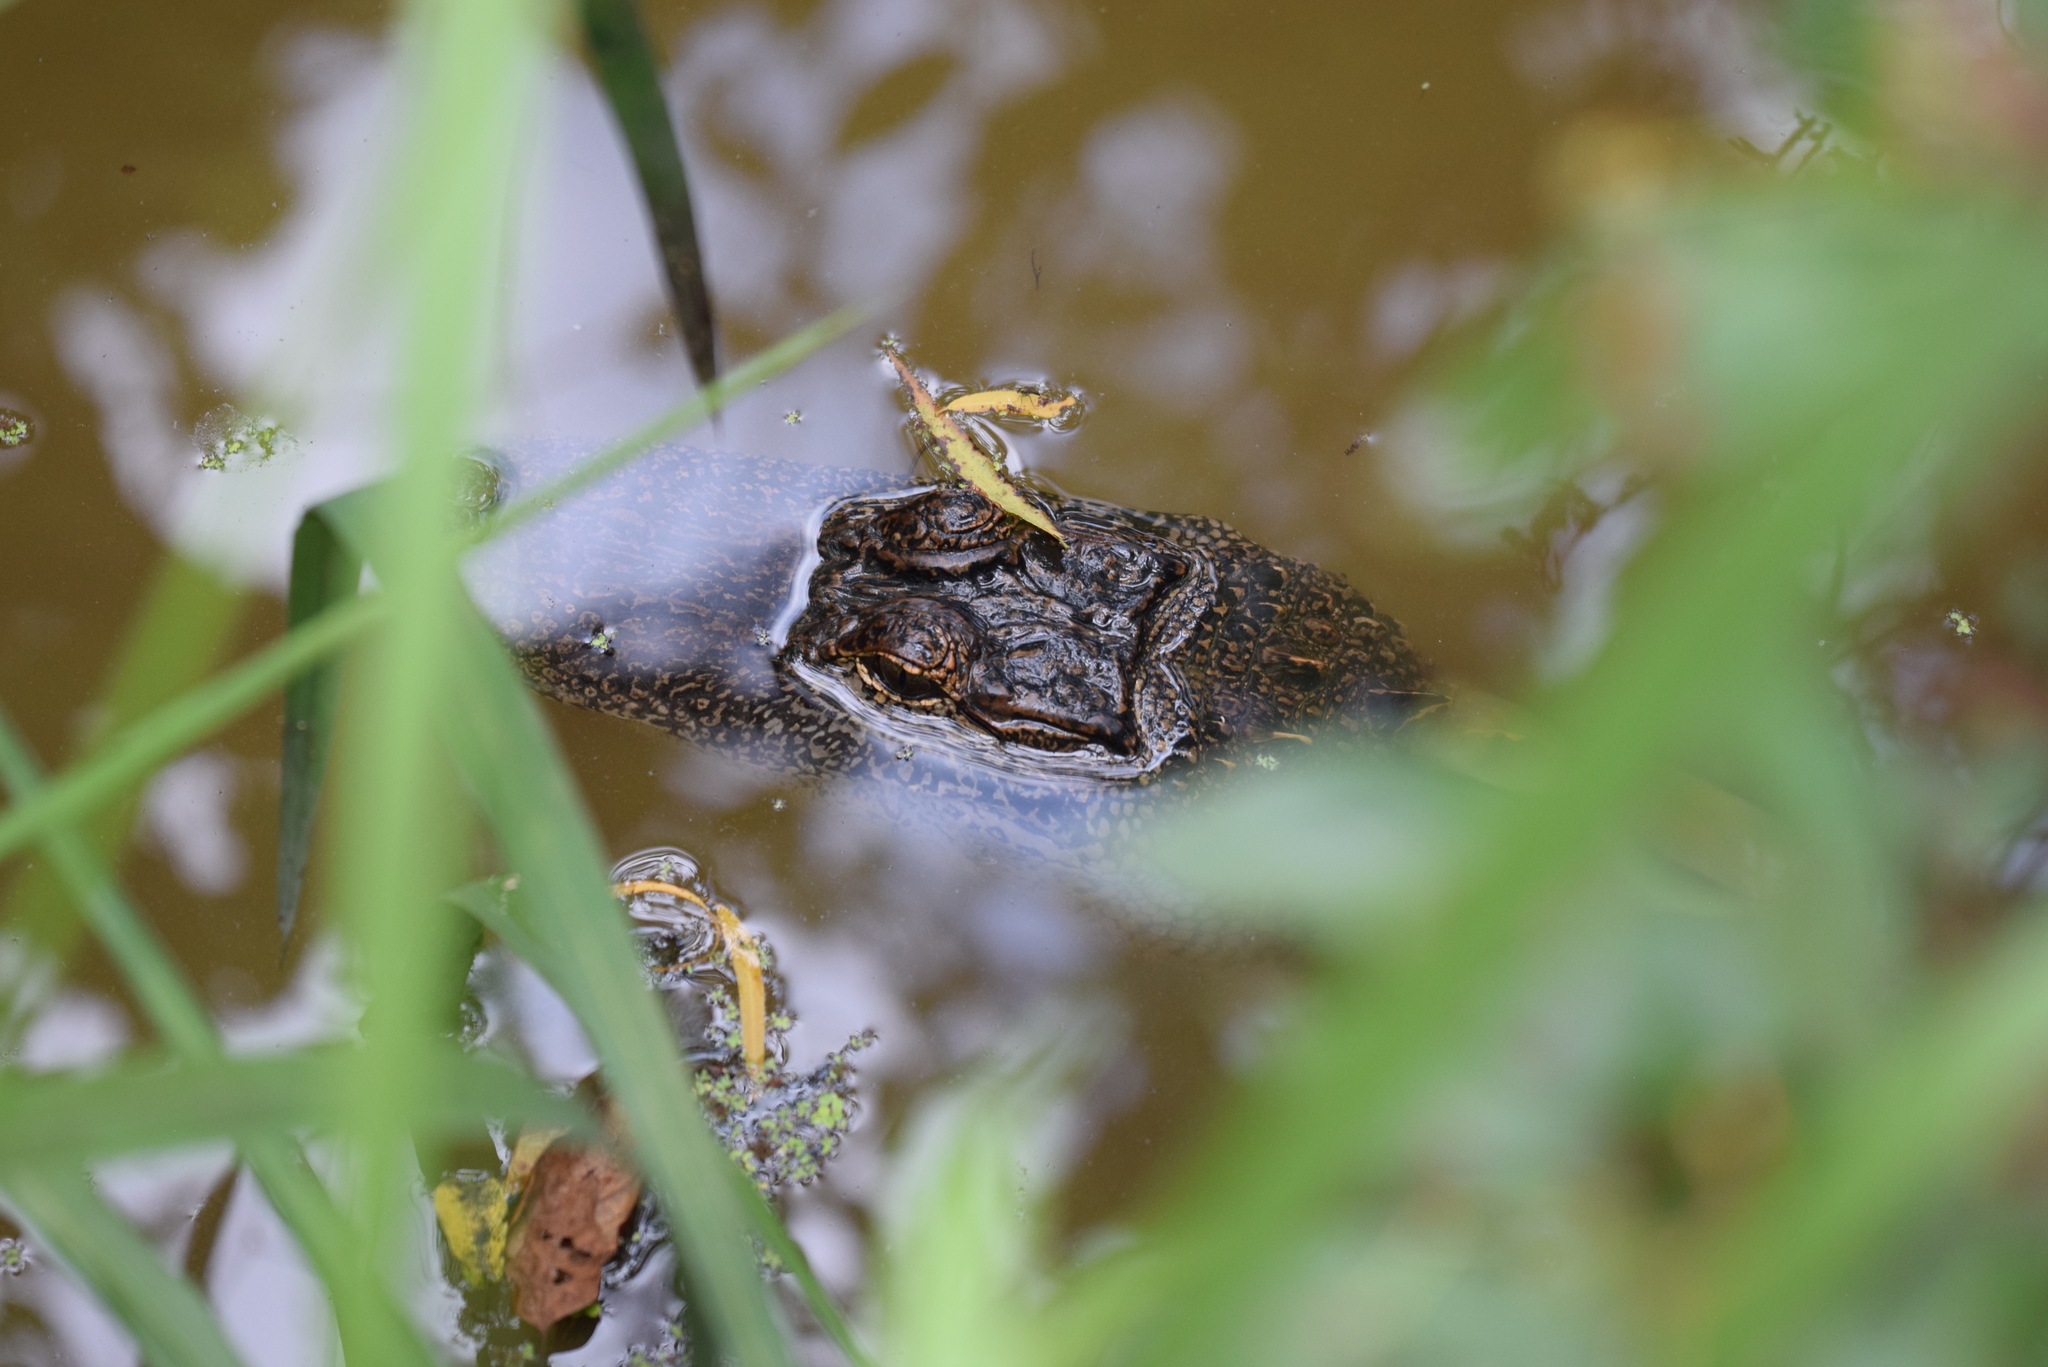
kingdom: Animalia
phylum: Chordata
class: Crocodylia
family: Alligatoridae
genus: Alligator
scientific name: Alligator mississippiensis
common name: American alligator
